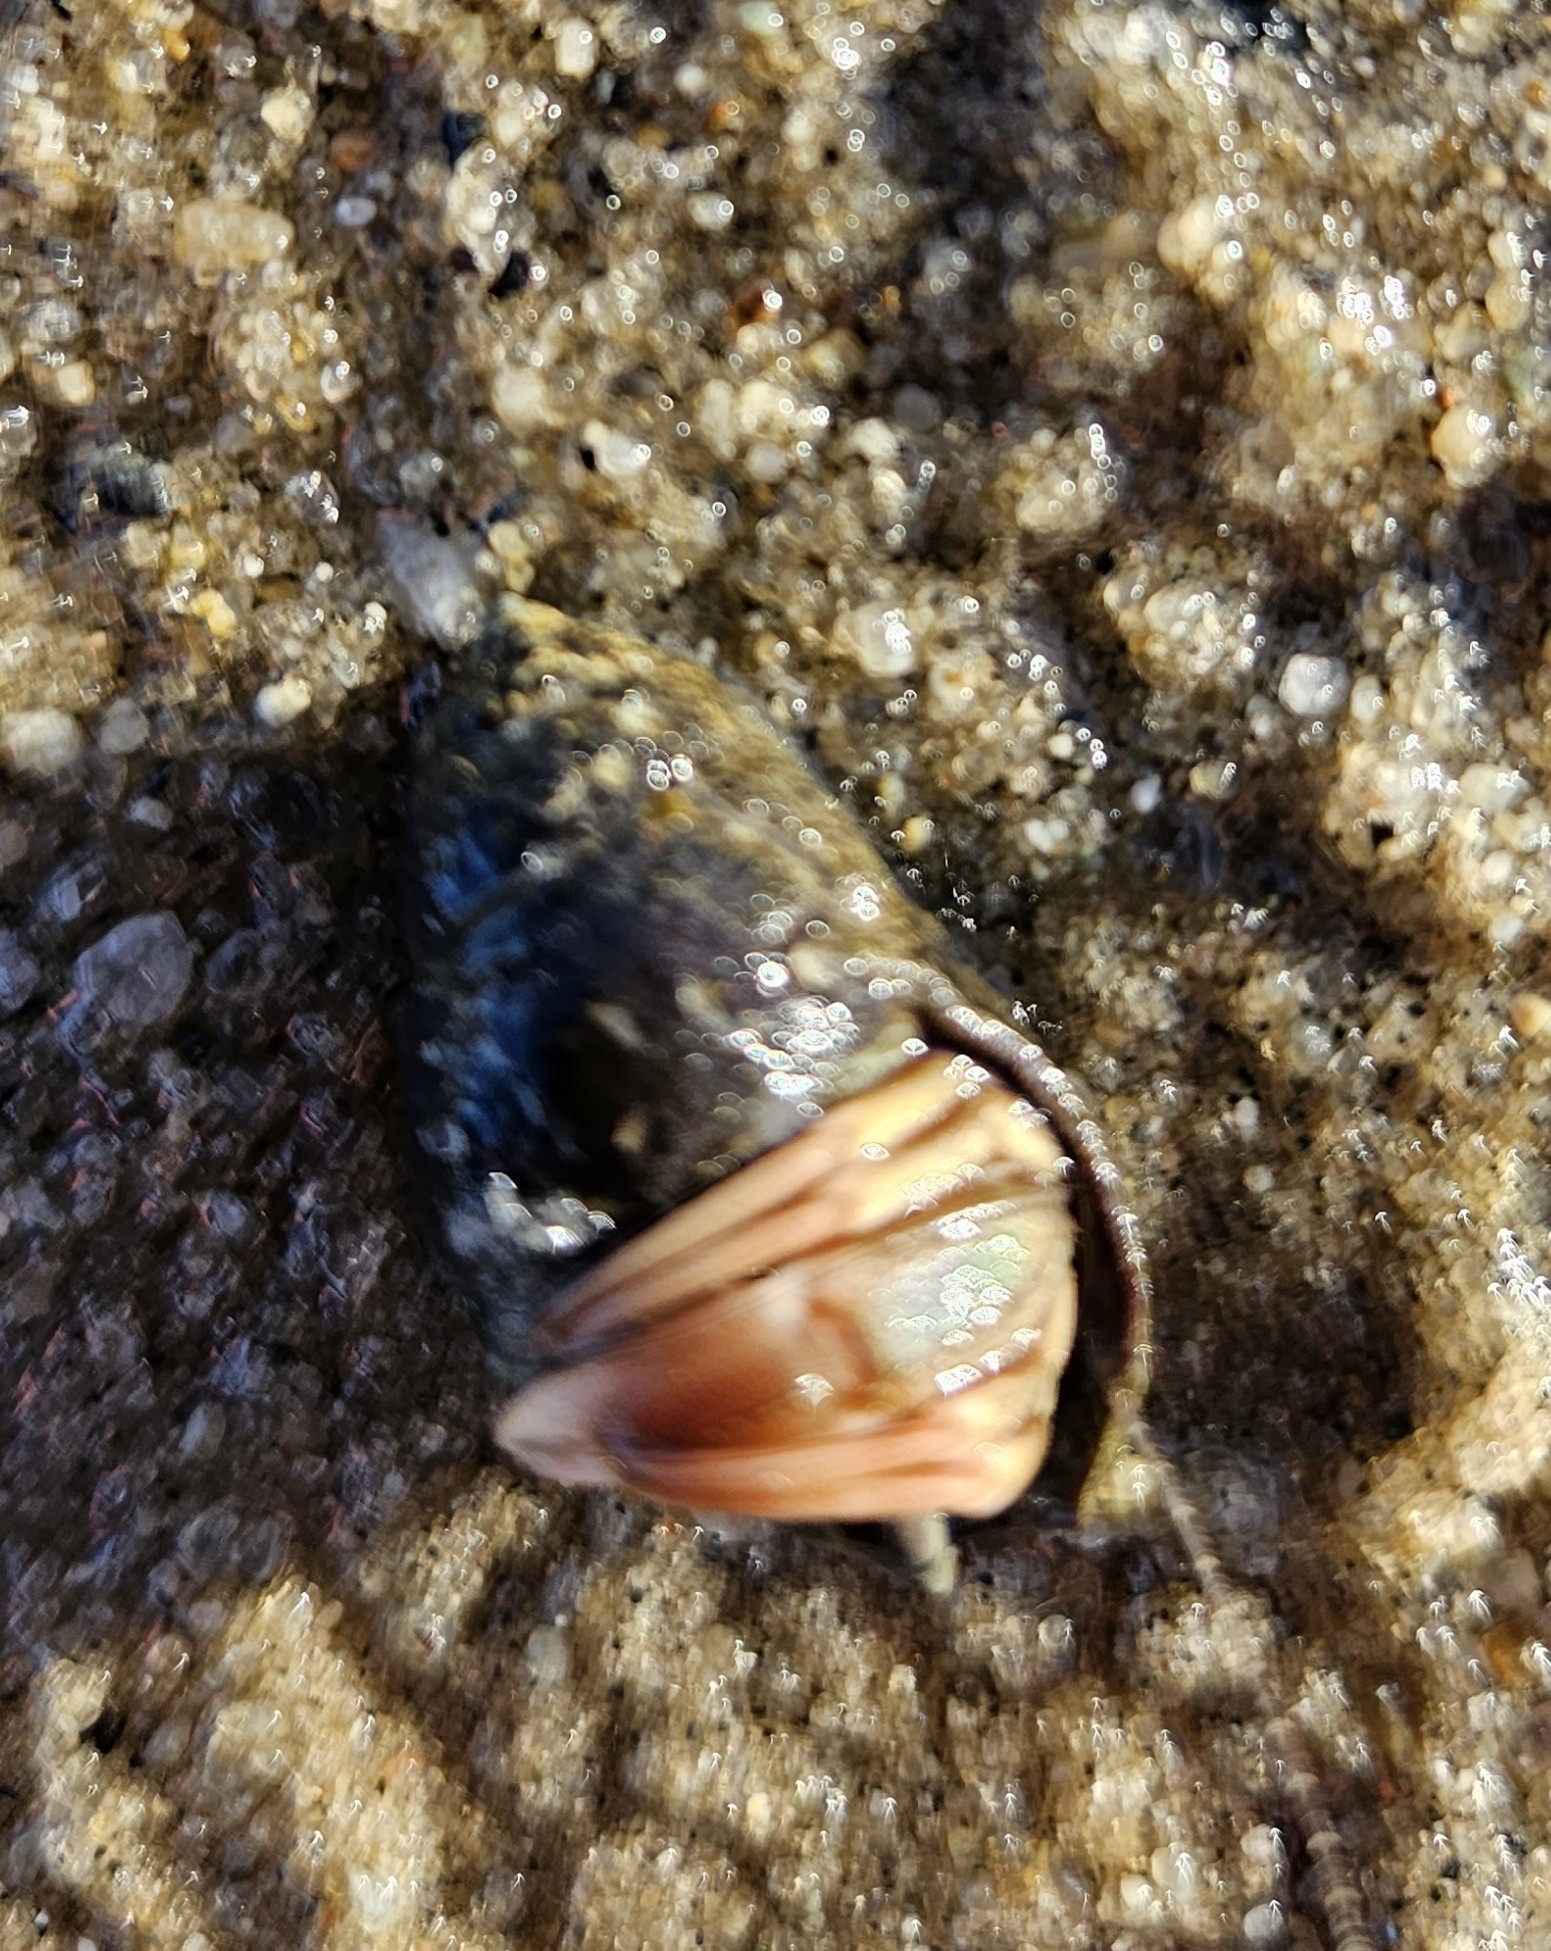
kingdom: Animalia
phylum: Arthropoda
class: Malacostraca
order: Decapoda
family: Paguridae
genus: Pagurus
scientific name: Pagurus longicarpus
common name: Long-armed hermit crab
